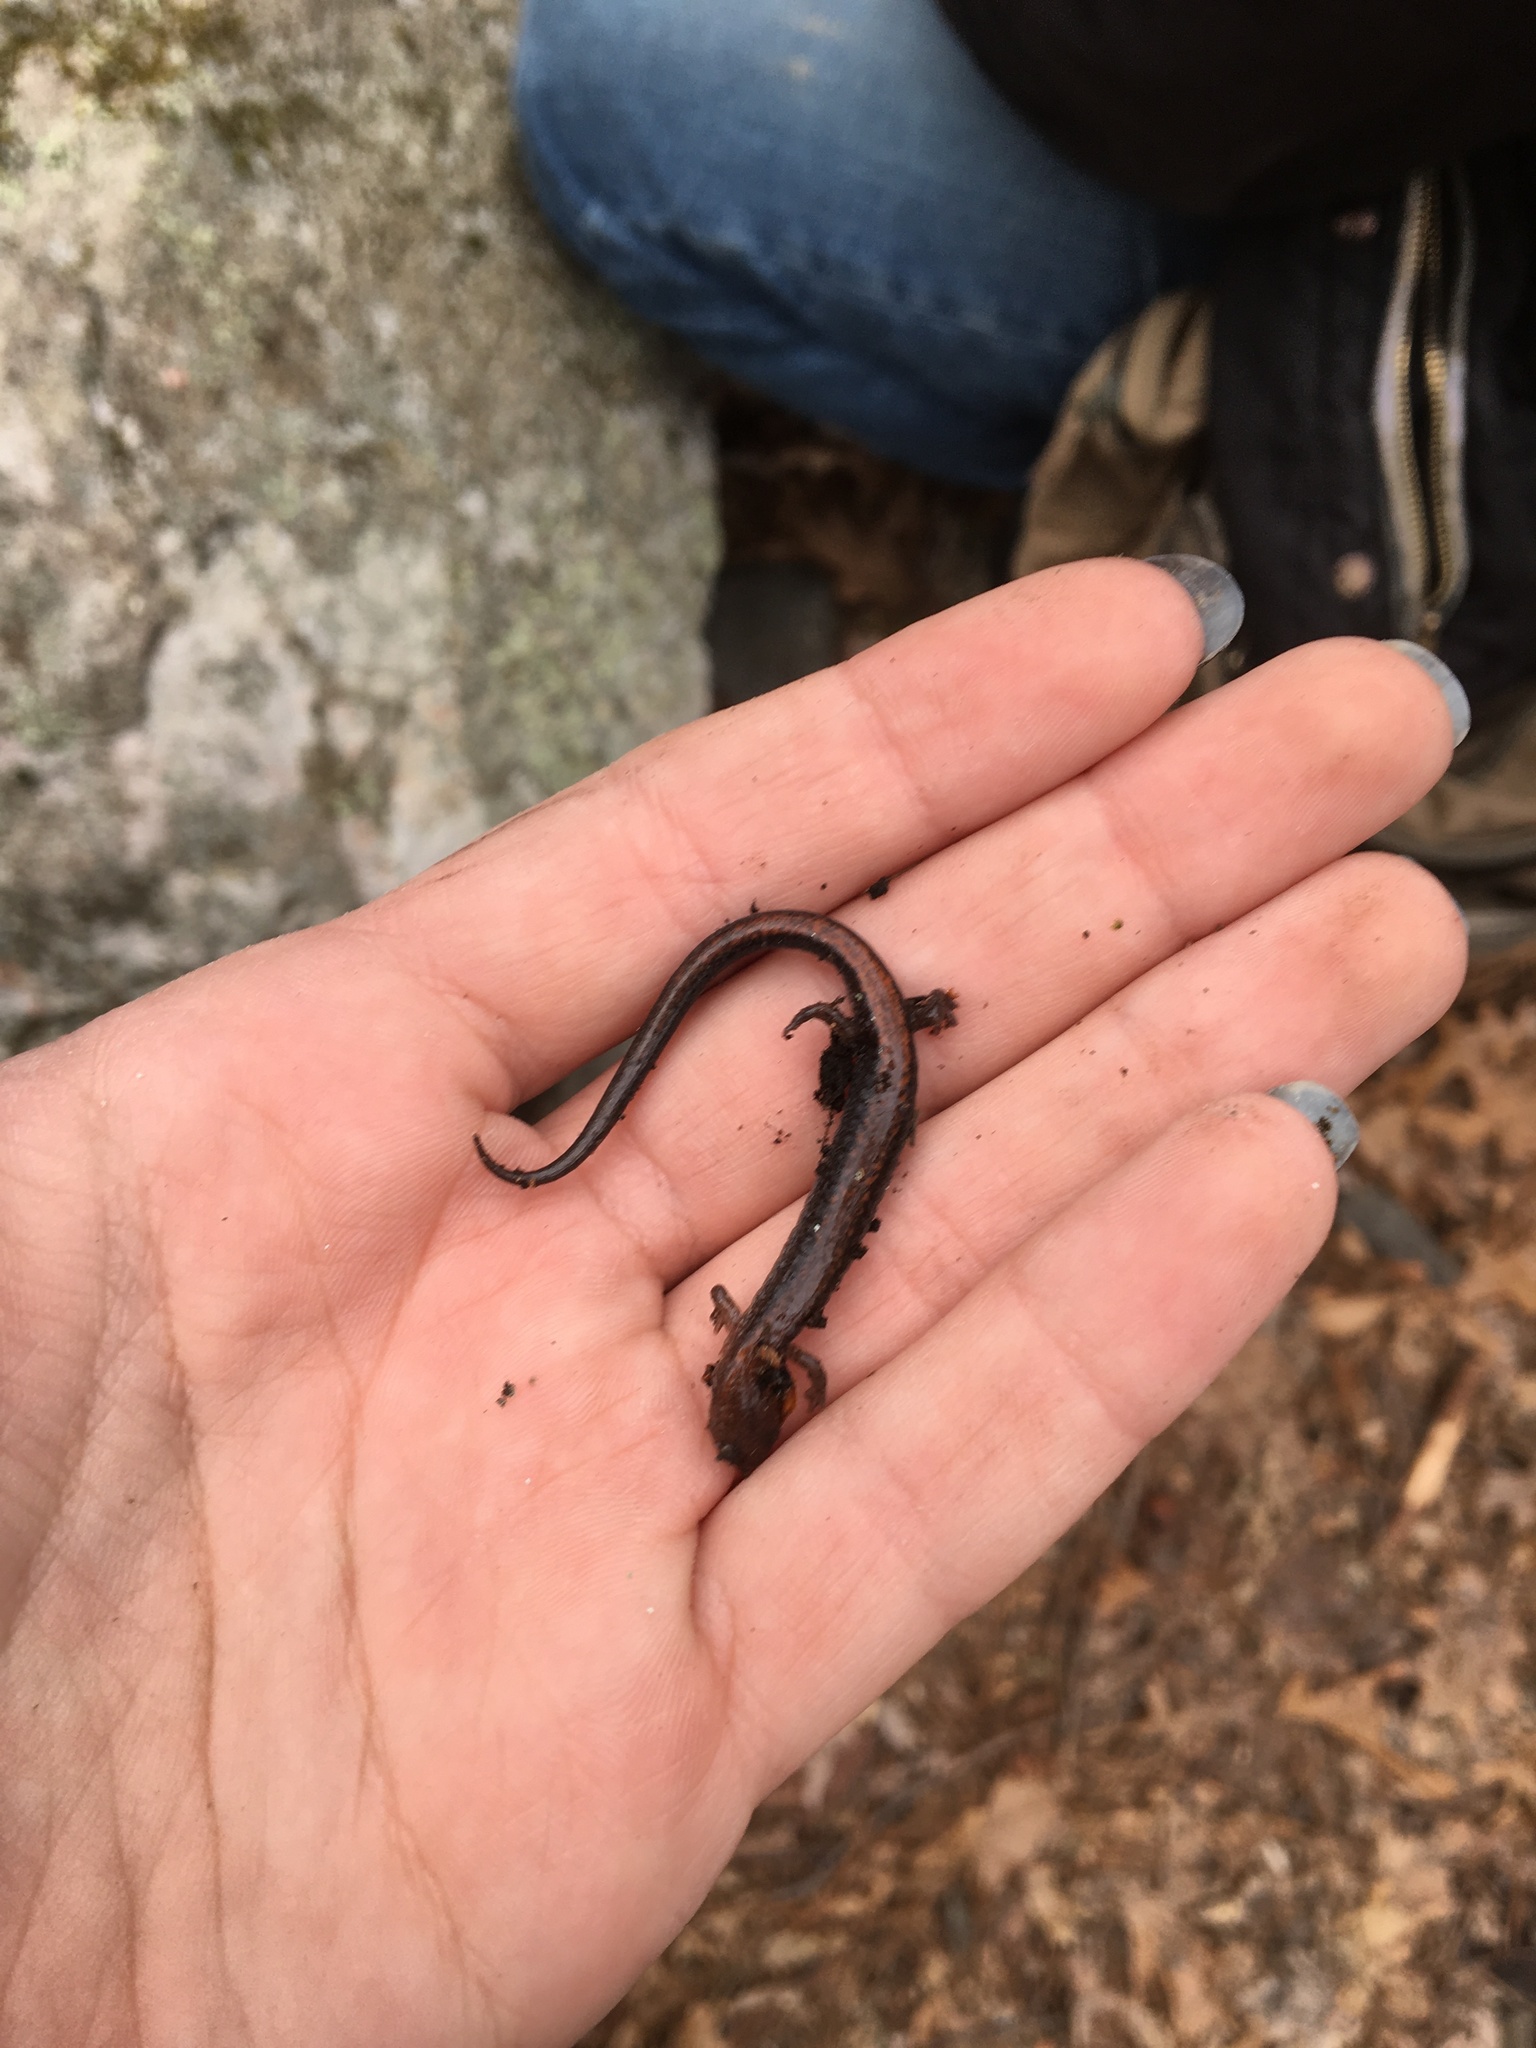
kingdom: Animalia
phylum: Chordata
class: Amphibia
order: Caudata
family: Plethodontidae
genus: Plethodon
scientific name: Plethodon cinereus
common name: Redback salamander
